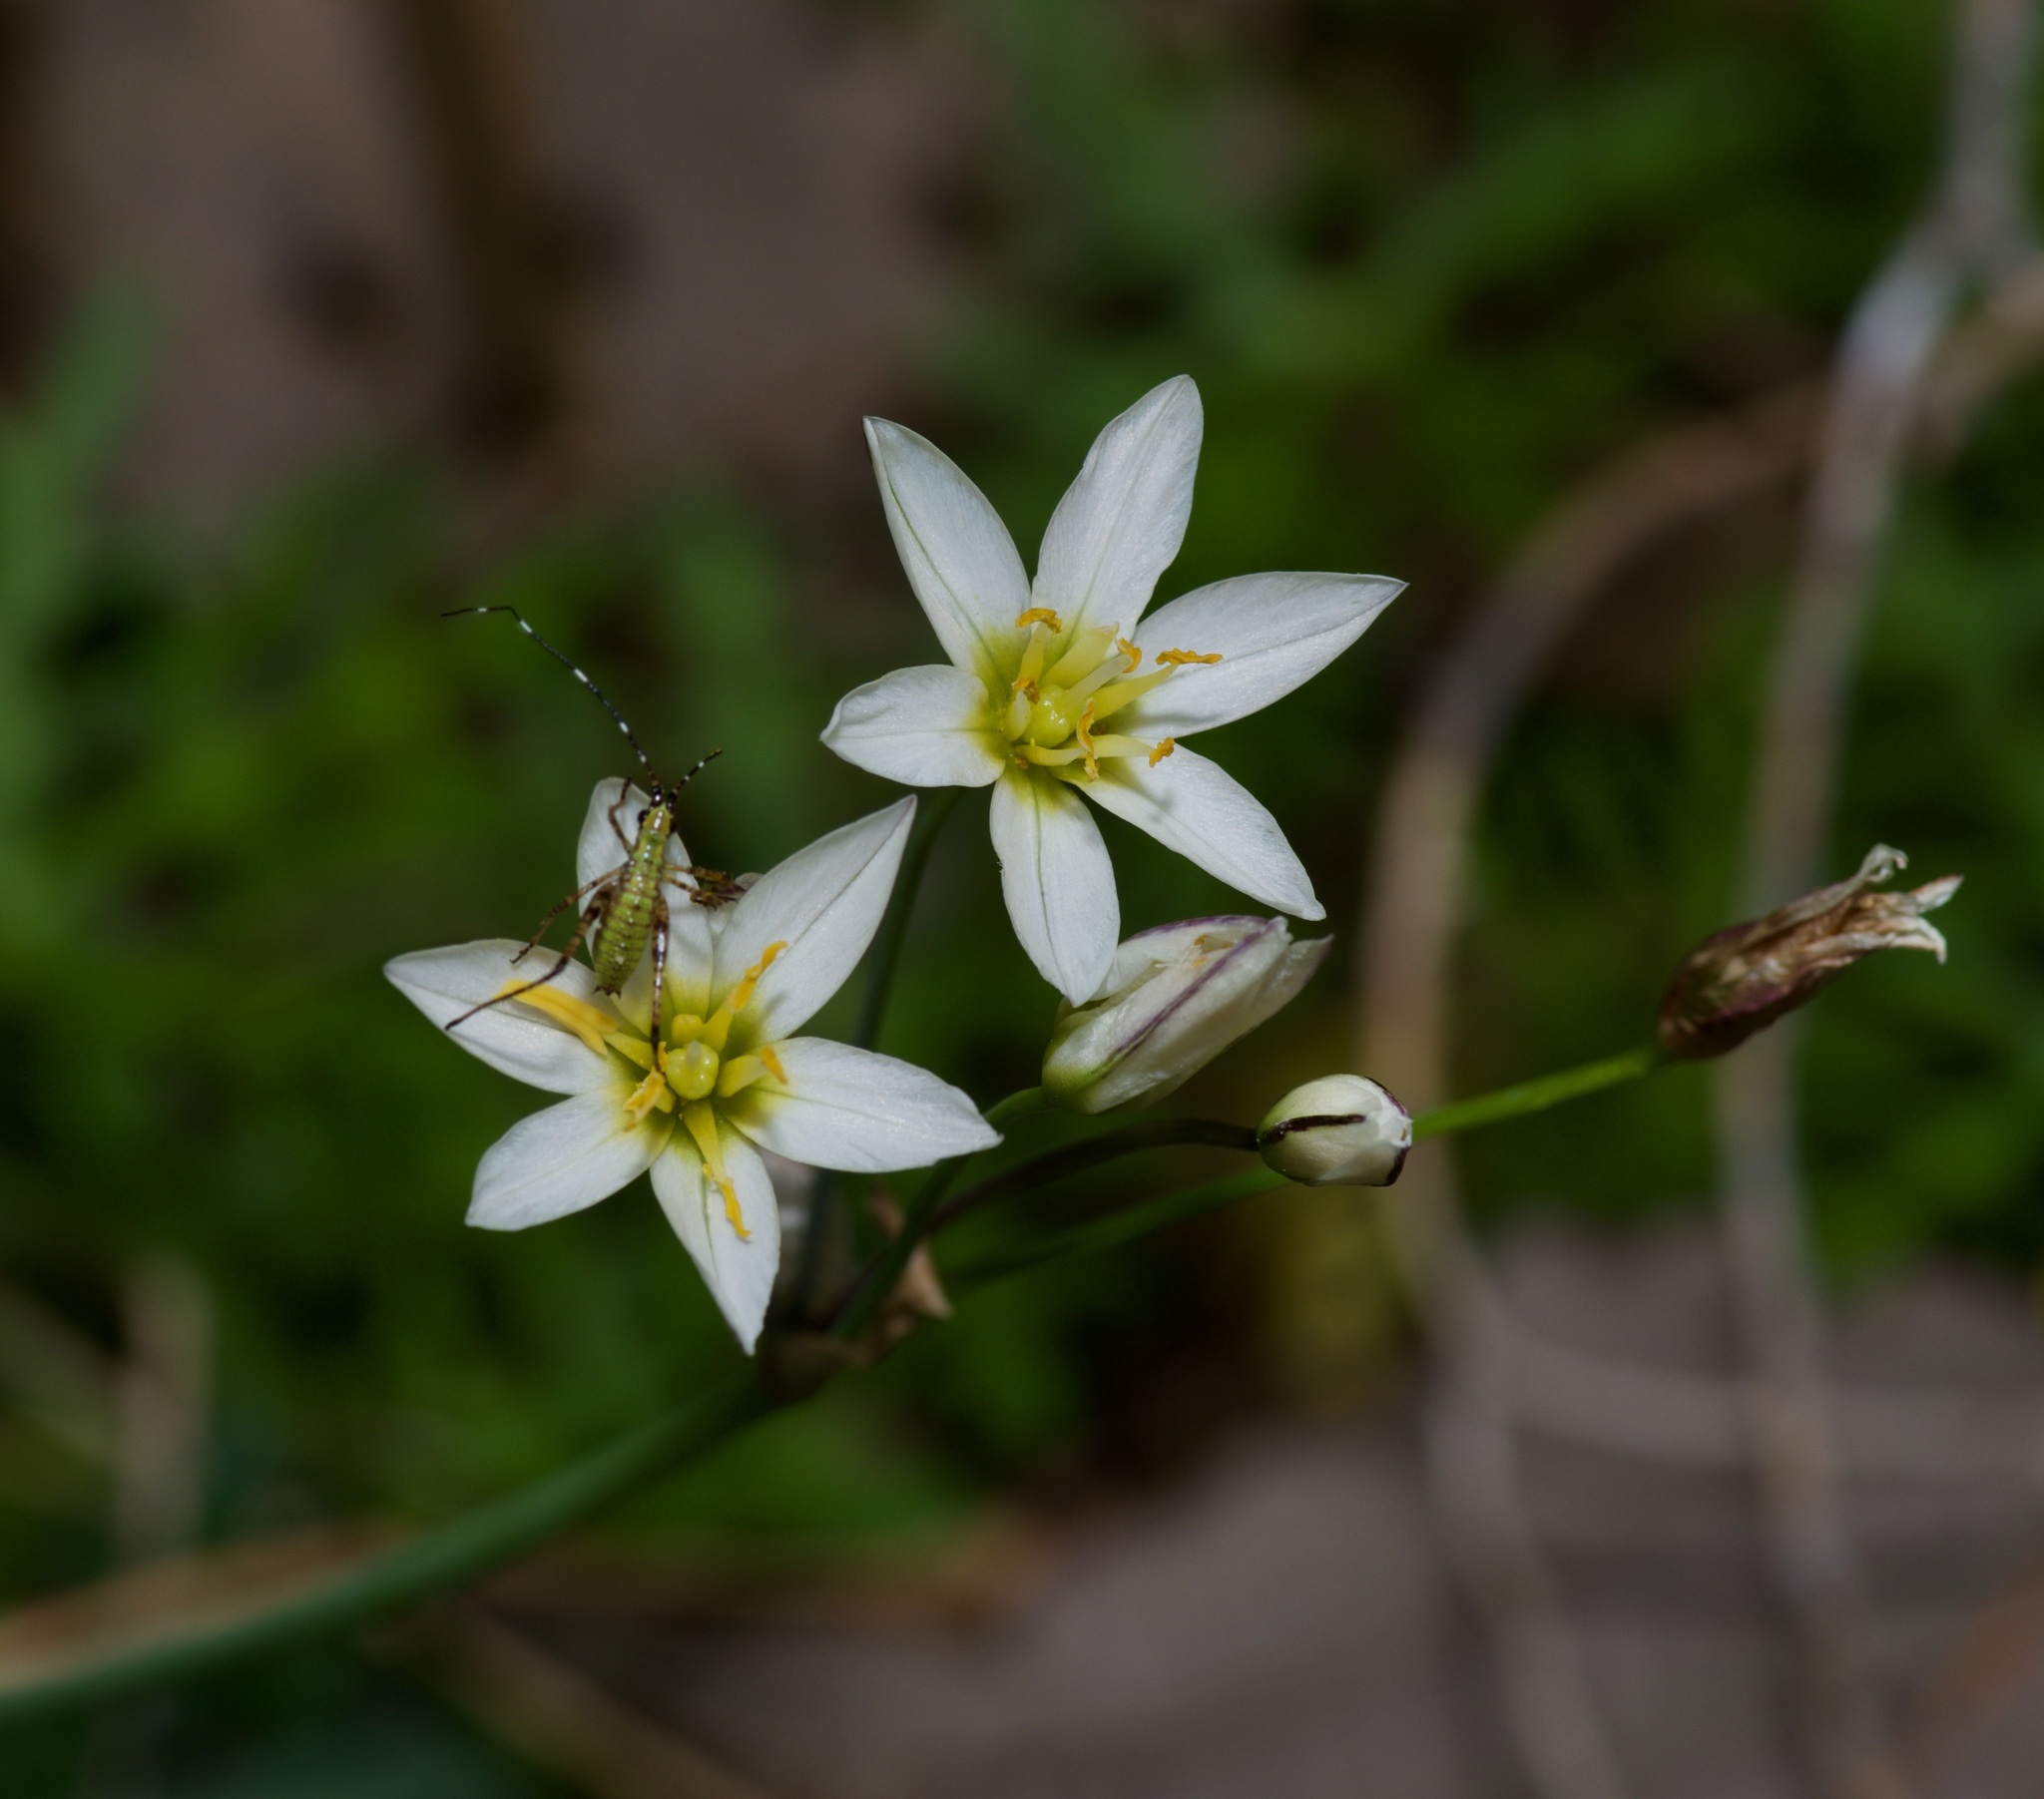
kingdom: Plantae
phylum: Tracheophyta
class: Liliopsida
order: Asparagales
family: Amaryllidaceae
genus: Nothoscordum
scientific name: Nothoscordum bivalve
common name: Crow-poison
